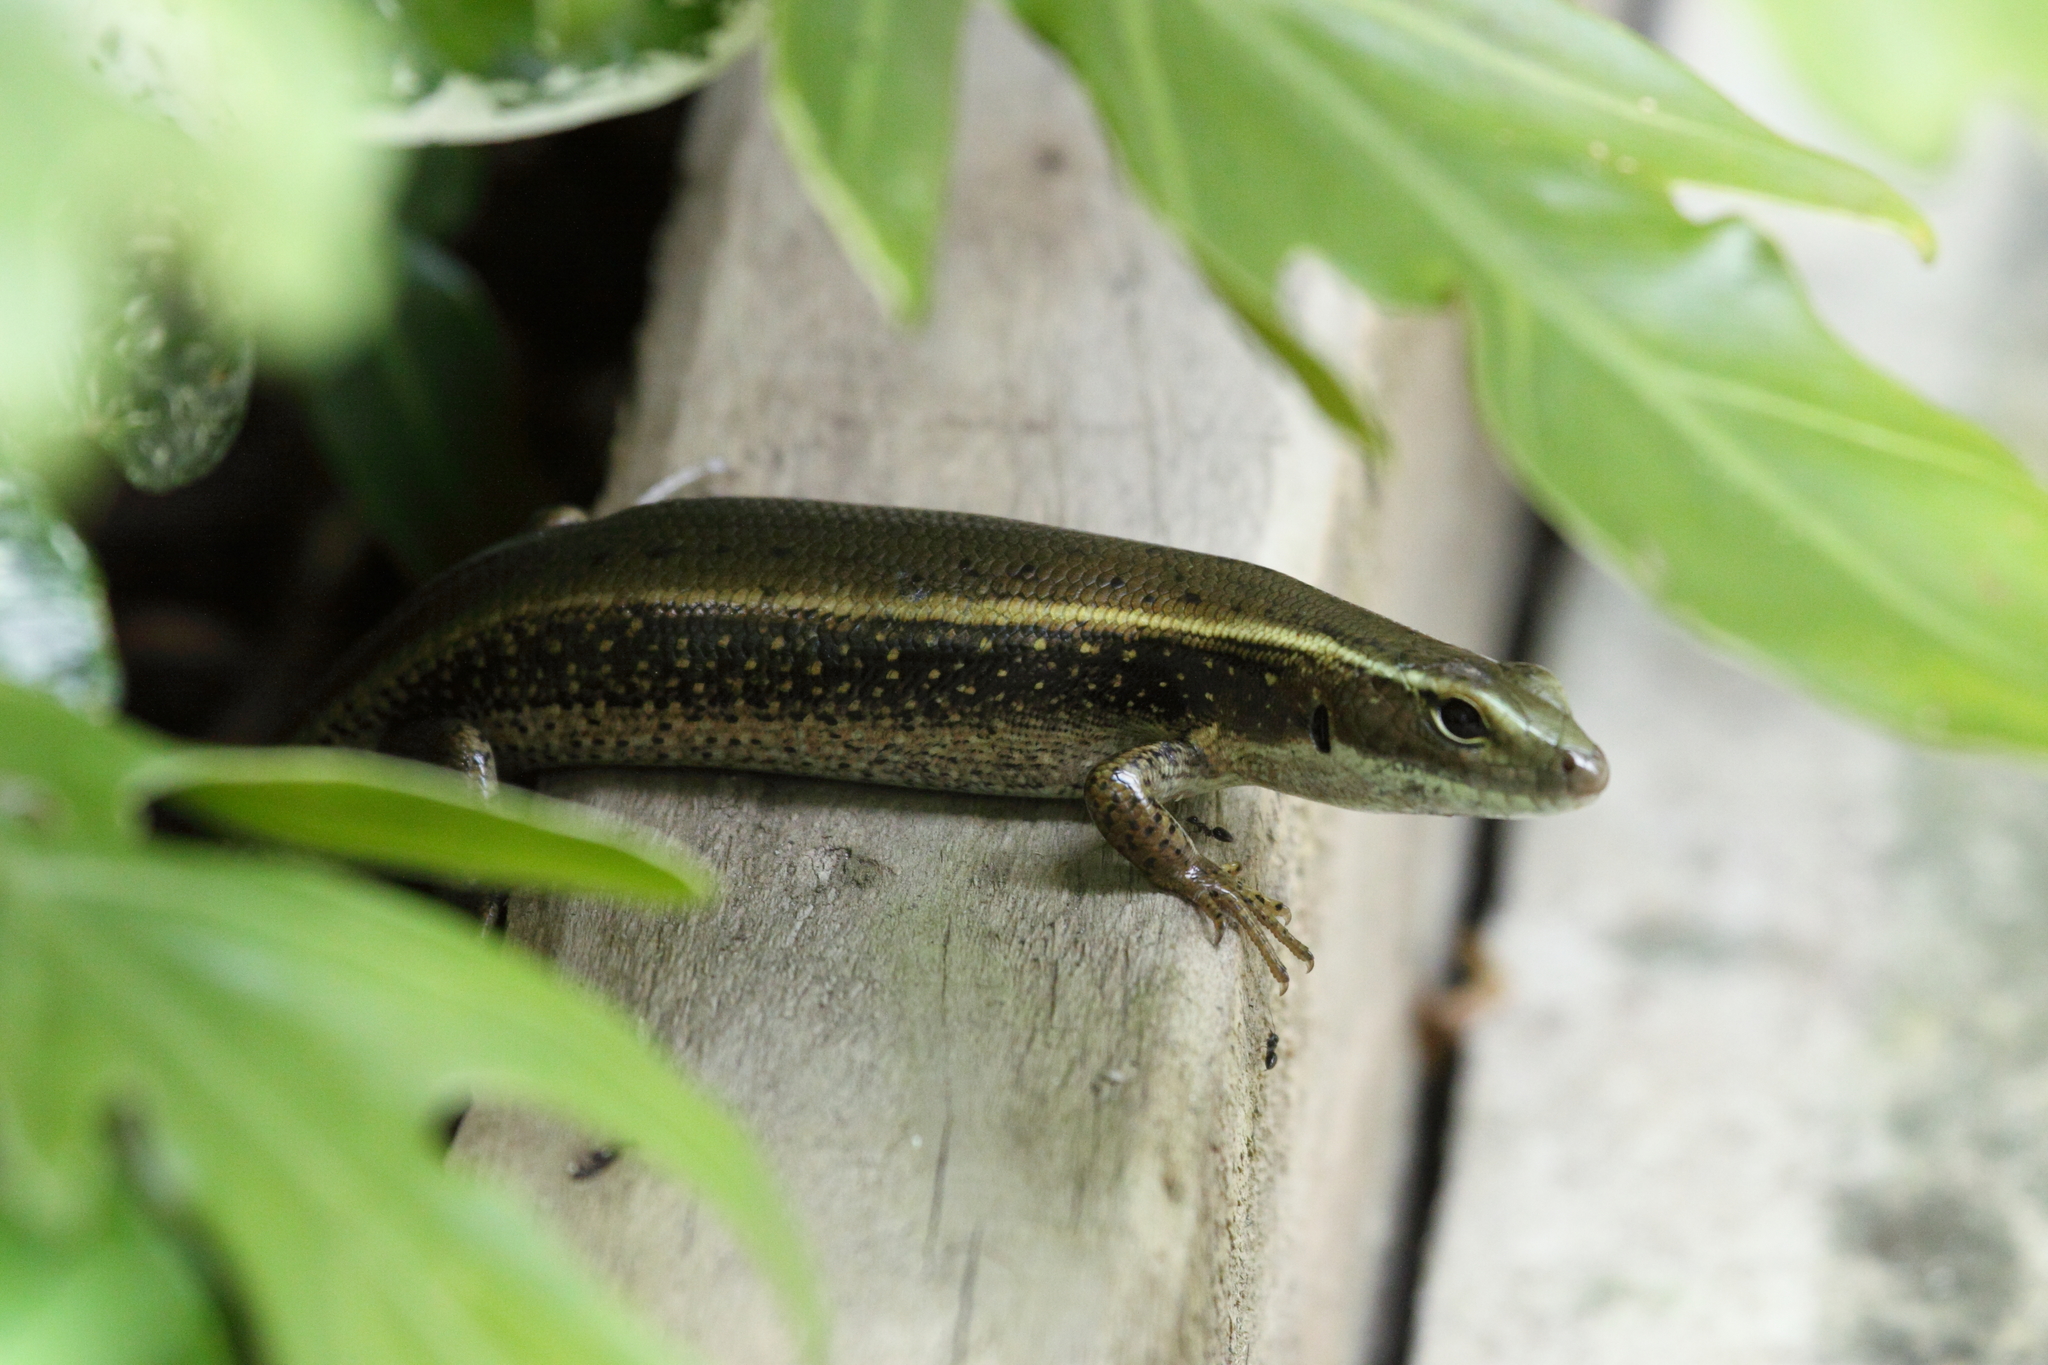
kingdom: Animalia
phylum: Chordata
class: Squamata
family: Scincidae
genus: Eulamprus
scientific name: Eulamprus quoyii
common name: Eastern water skink
